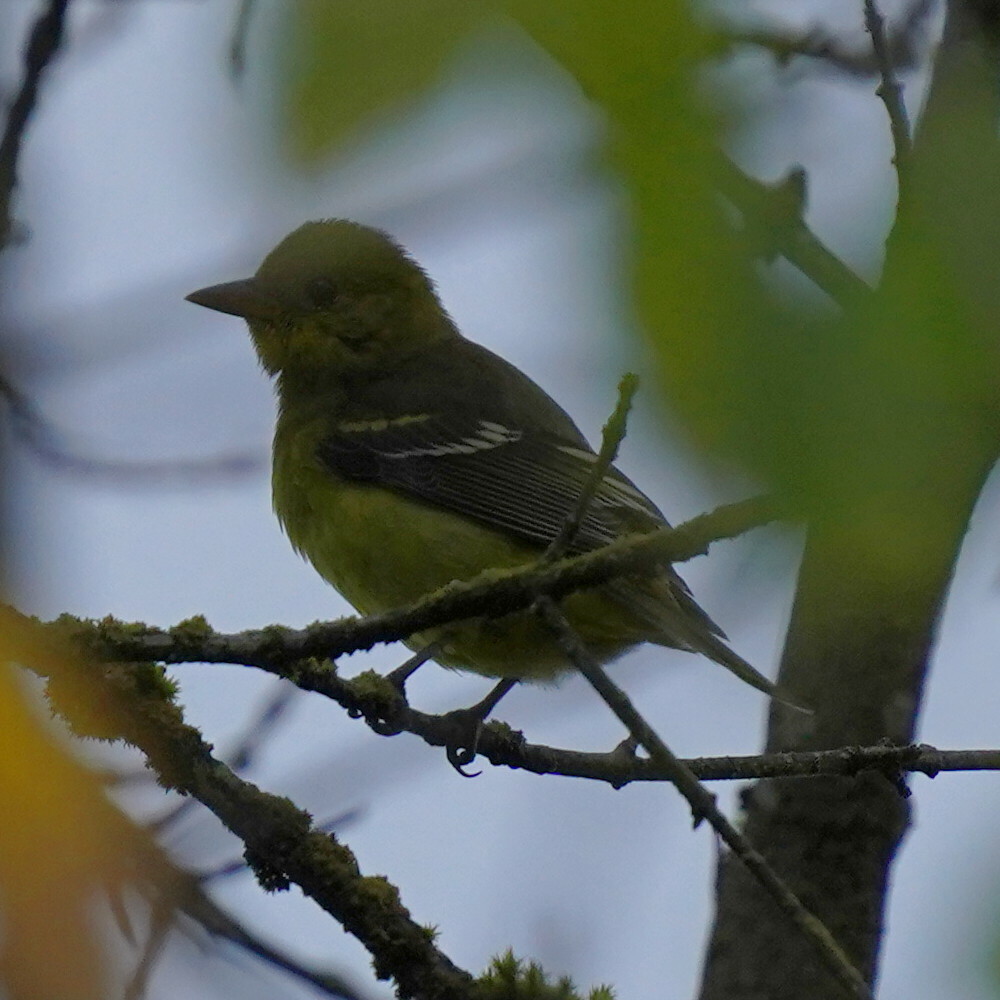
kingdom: Animalia
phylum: Chordata
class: Aves
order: Passeriformes
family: Cardinalidae
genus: Piranga
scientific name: Piranga ludoviciana
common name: Western tanager
